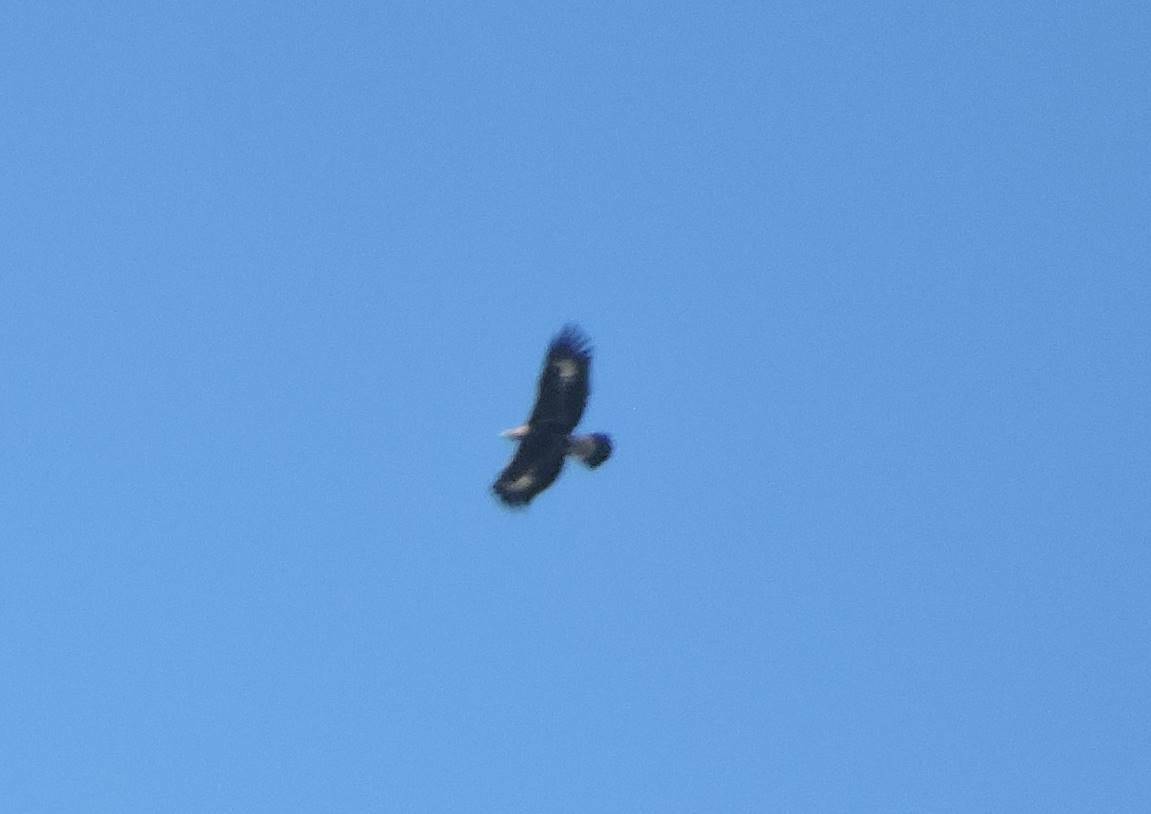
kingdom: Animalia
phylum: Chordata
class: Aves
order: Accipitriformes
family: Accipitridae
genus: Aquila
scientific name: Aquila chrysaetos
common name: Golden eagle
